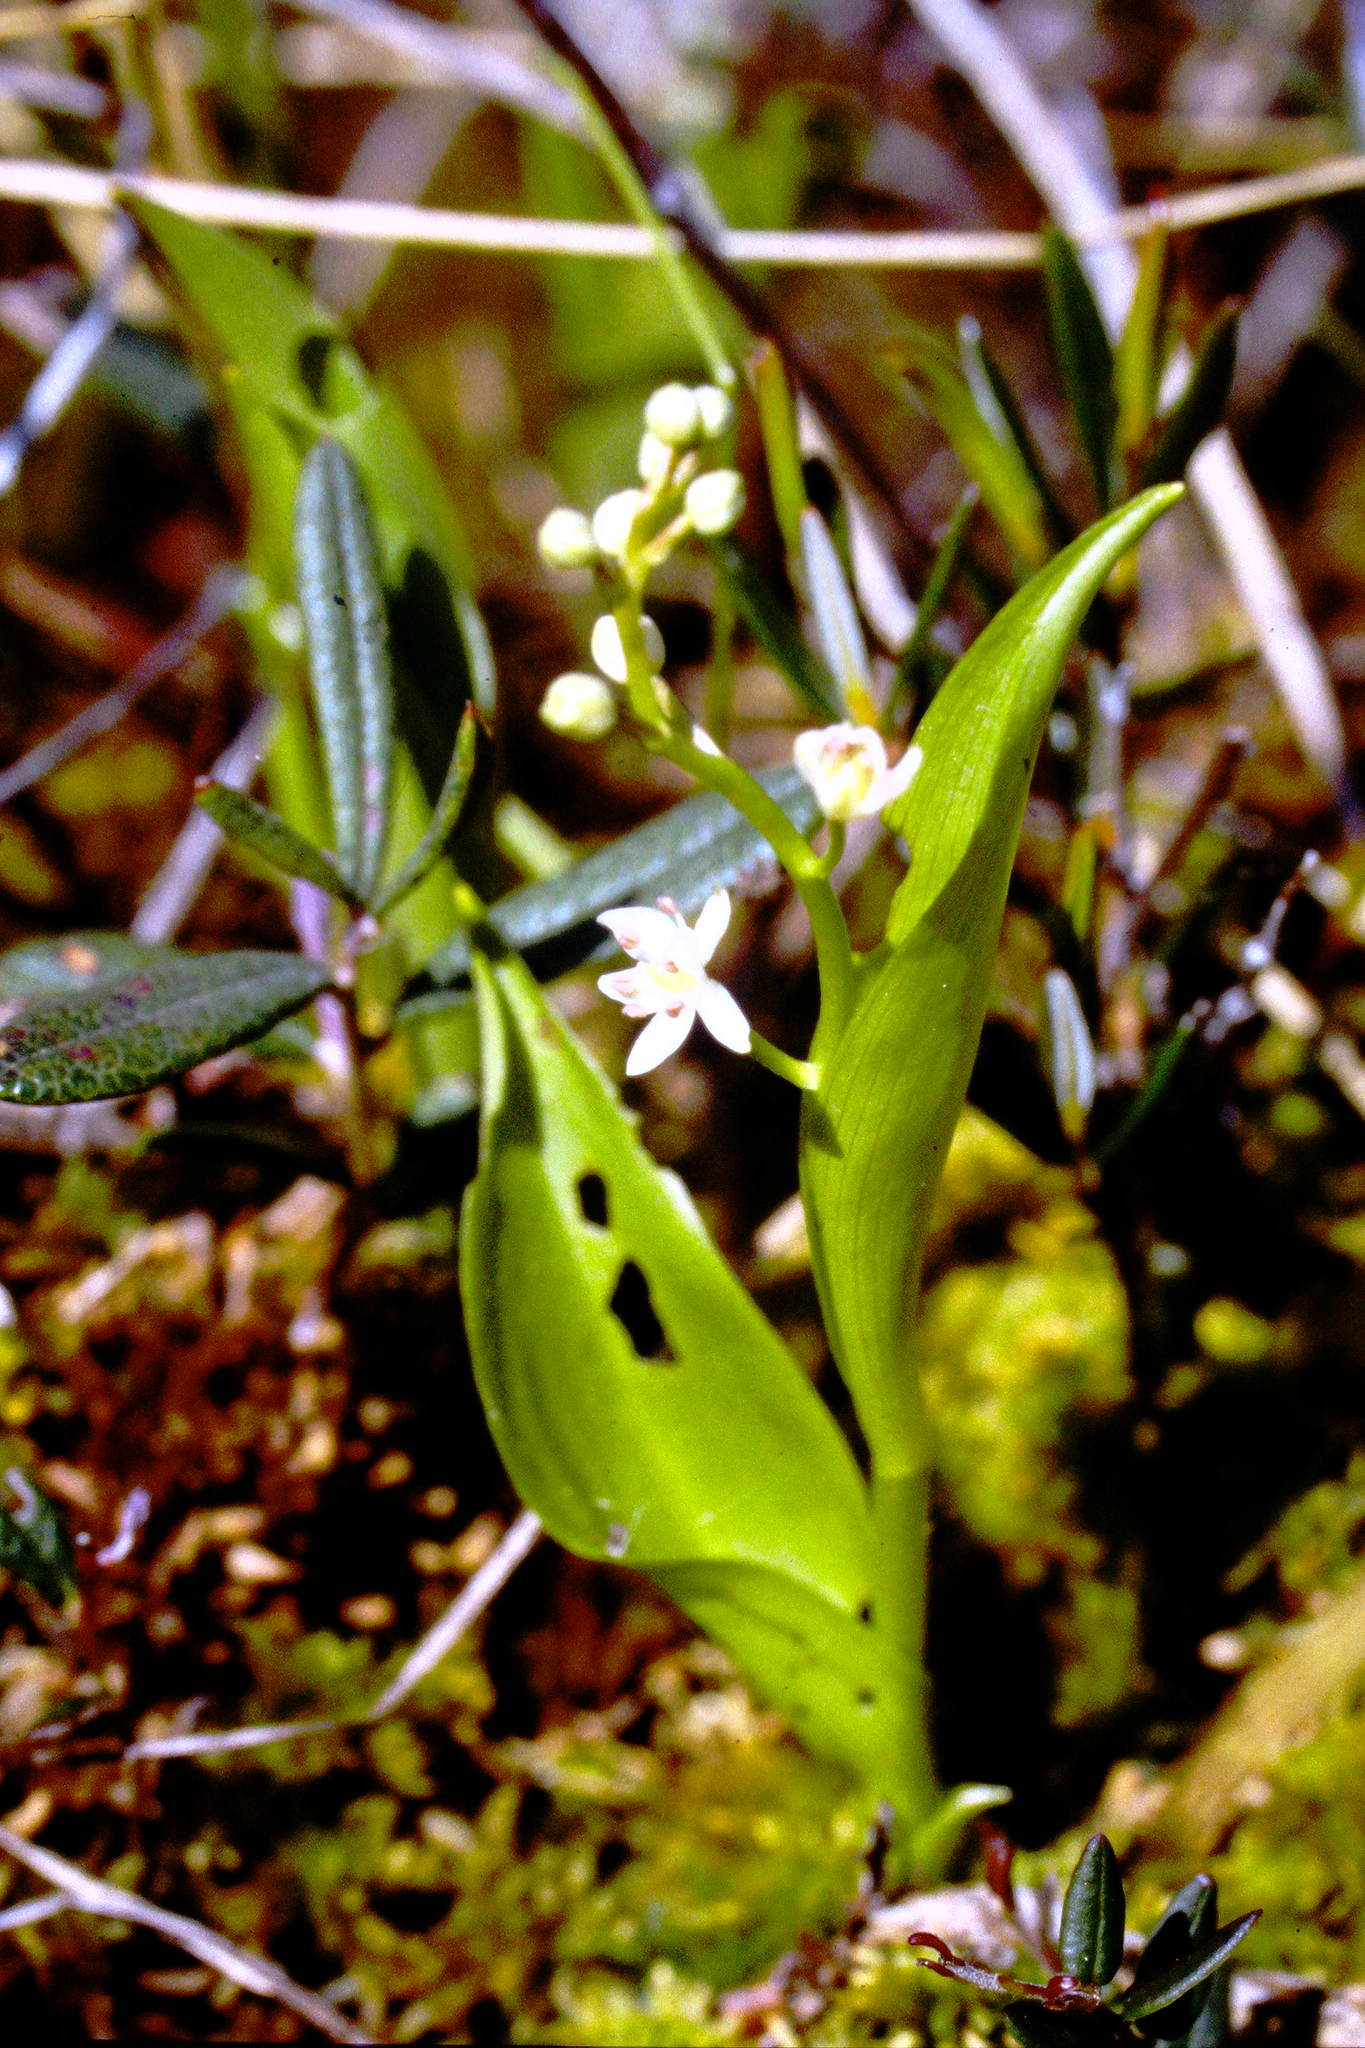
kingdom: Plantae
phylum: Tracheophyta
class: Liliopsida
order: Asparagales
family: Asparagaceae
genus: Maianthemum
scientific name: Maianthemum trifolium
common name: Swamp false solomon's seal
